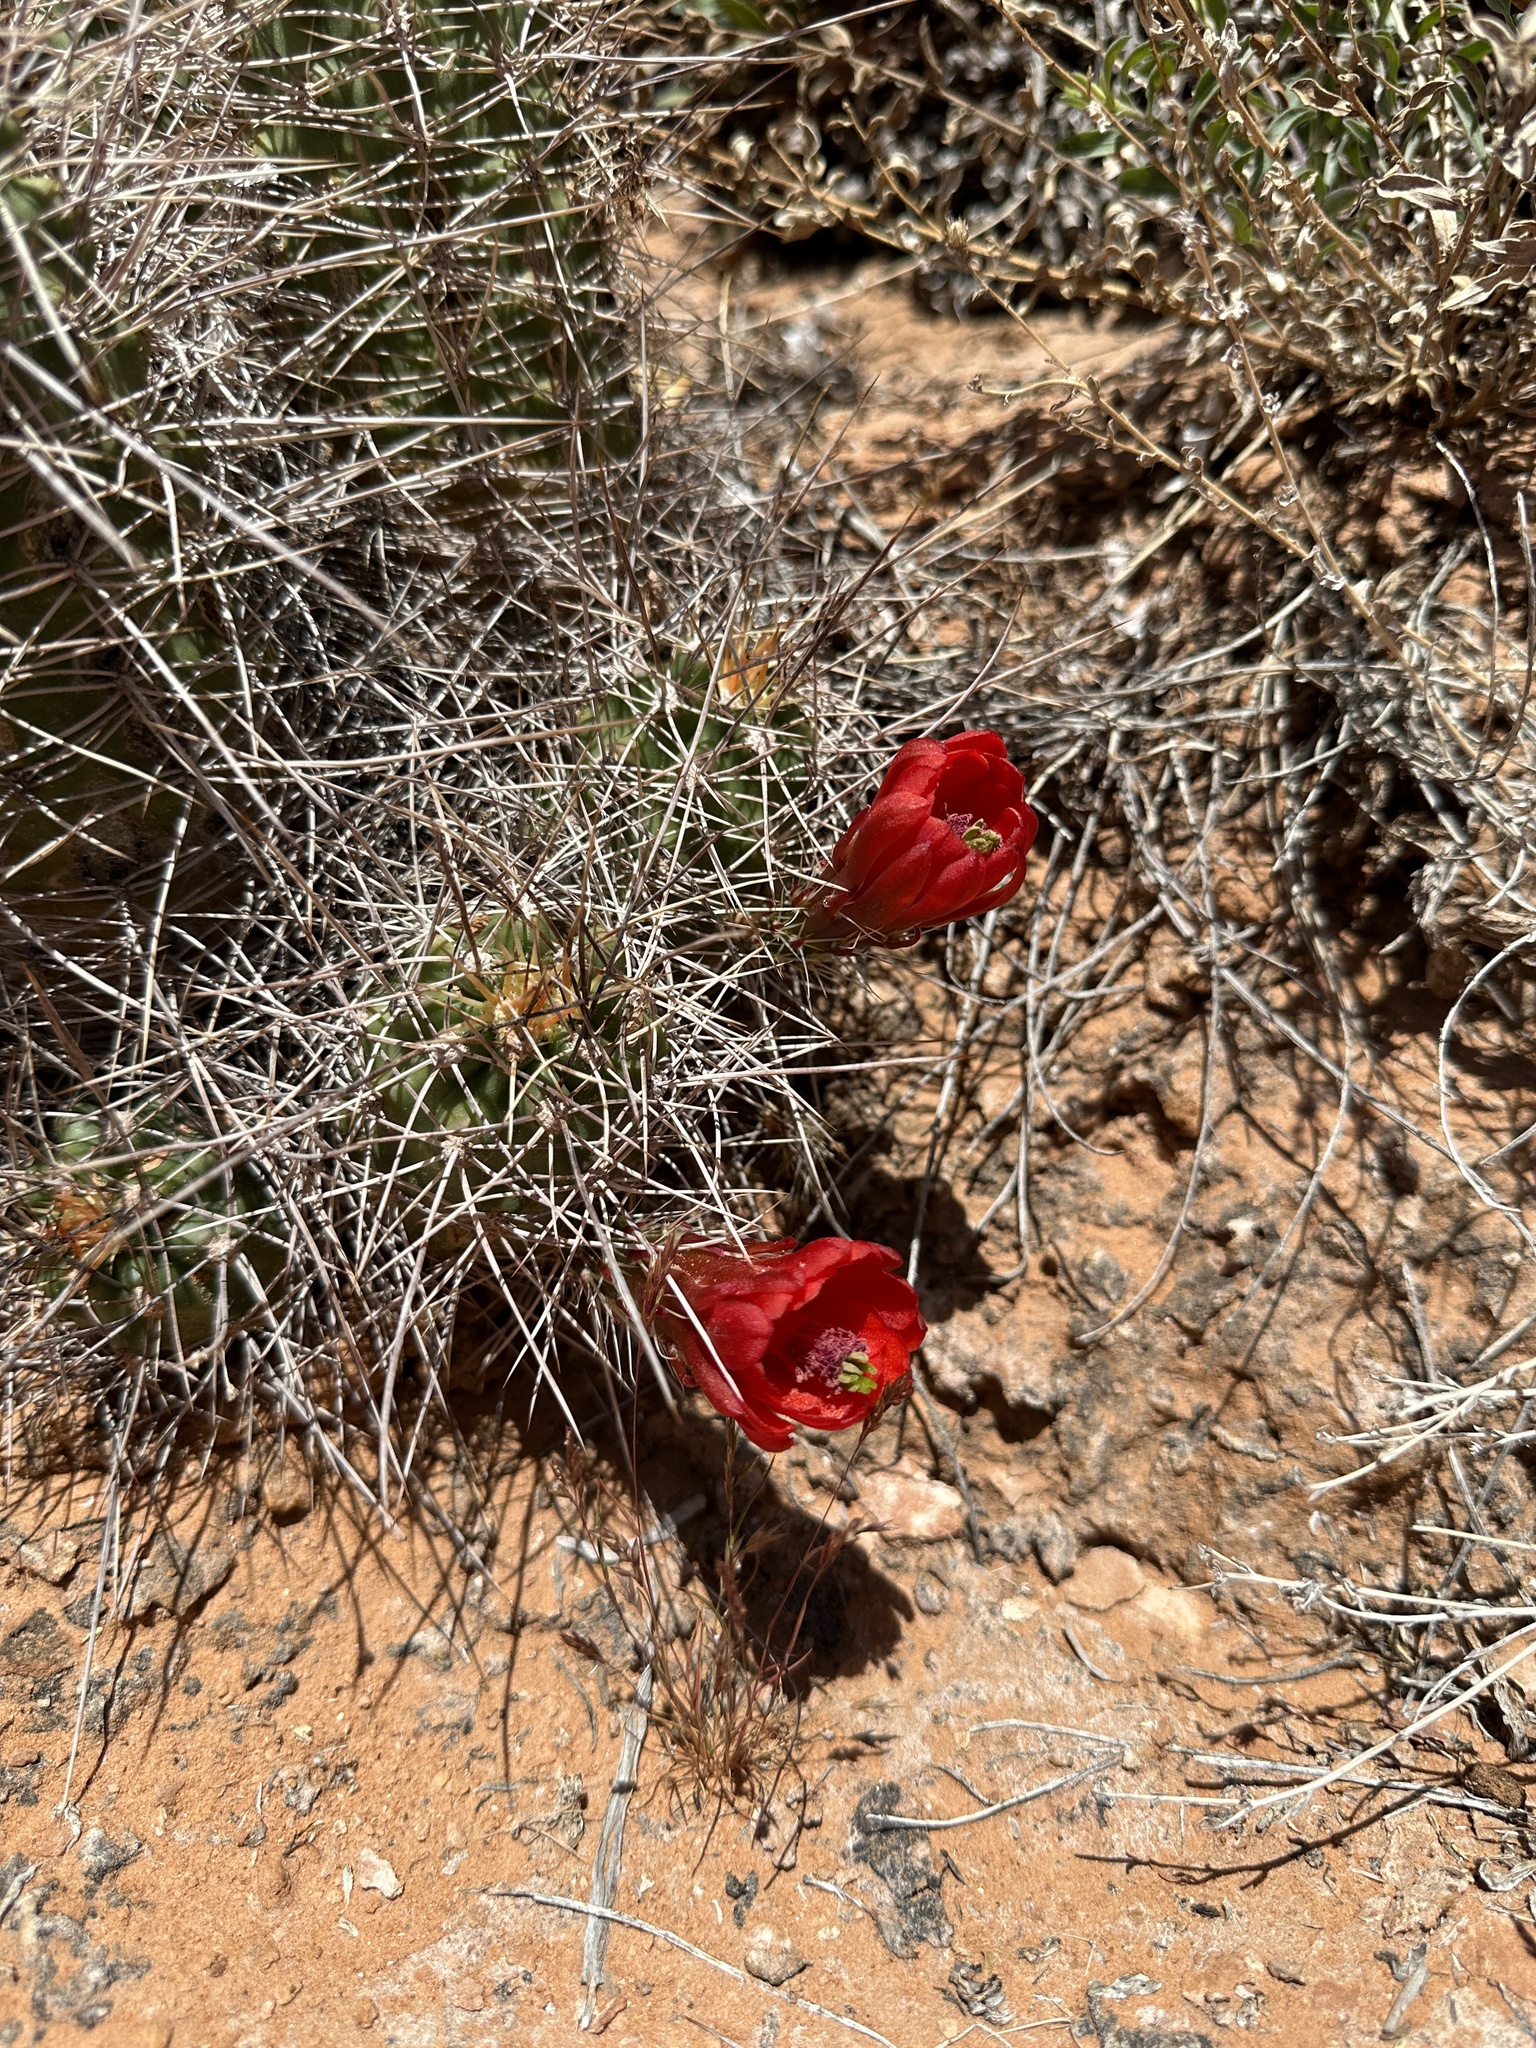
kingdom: Plantae
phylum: Tracheophyta
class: Magnoliopsida
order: Caryophyllales
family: Cactaceae
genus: Echinocereus
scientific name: Echinocereus triglochidiatus
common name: Claretcup hedgehog
